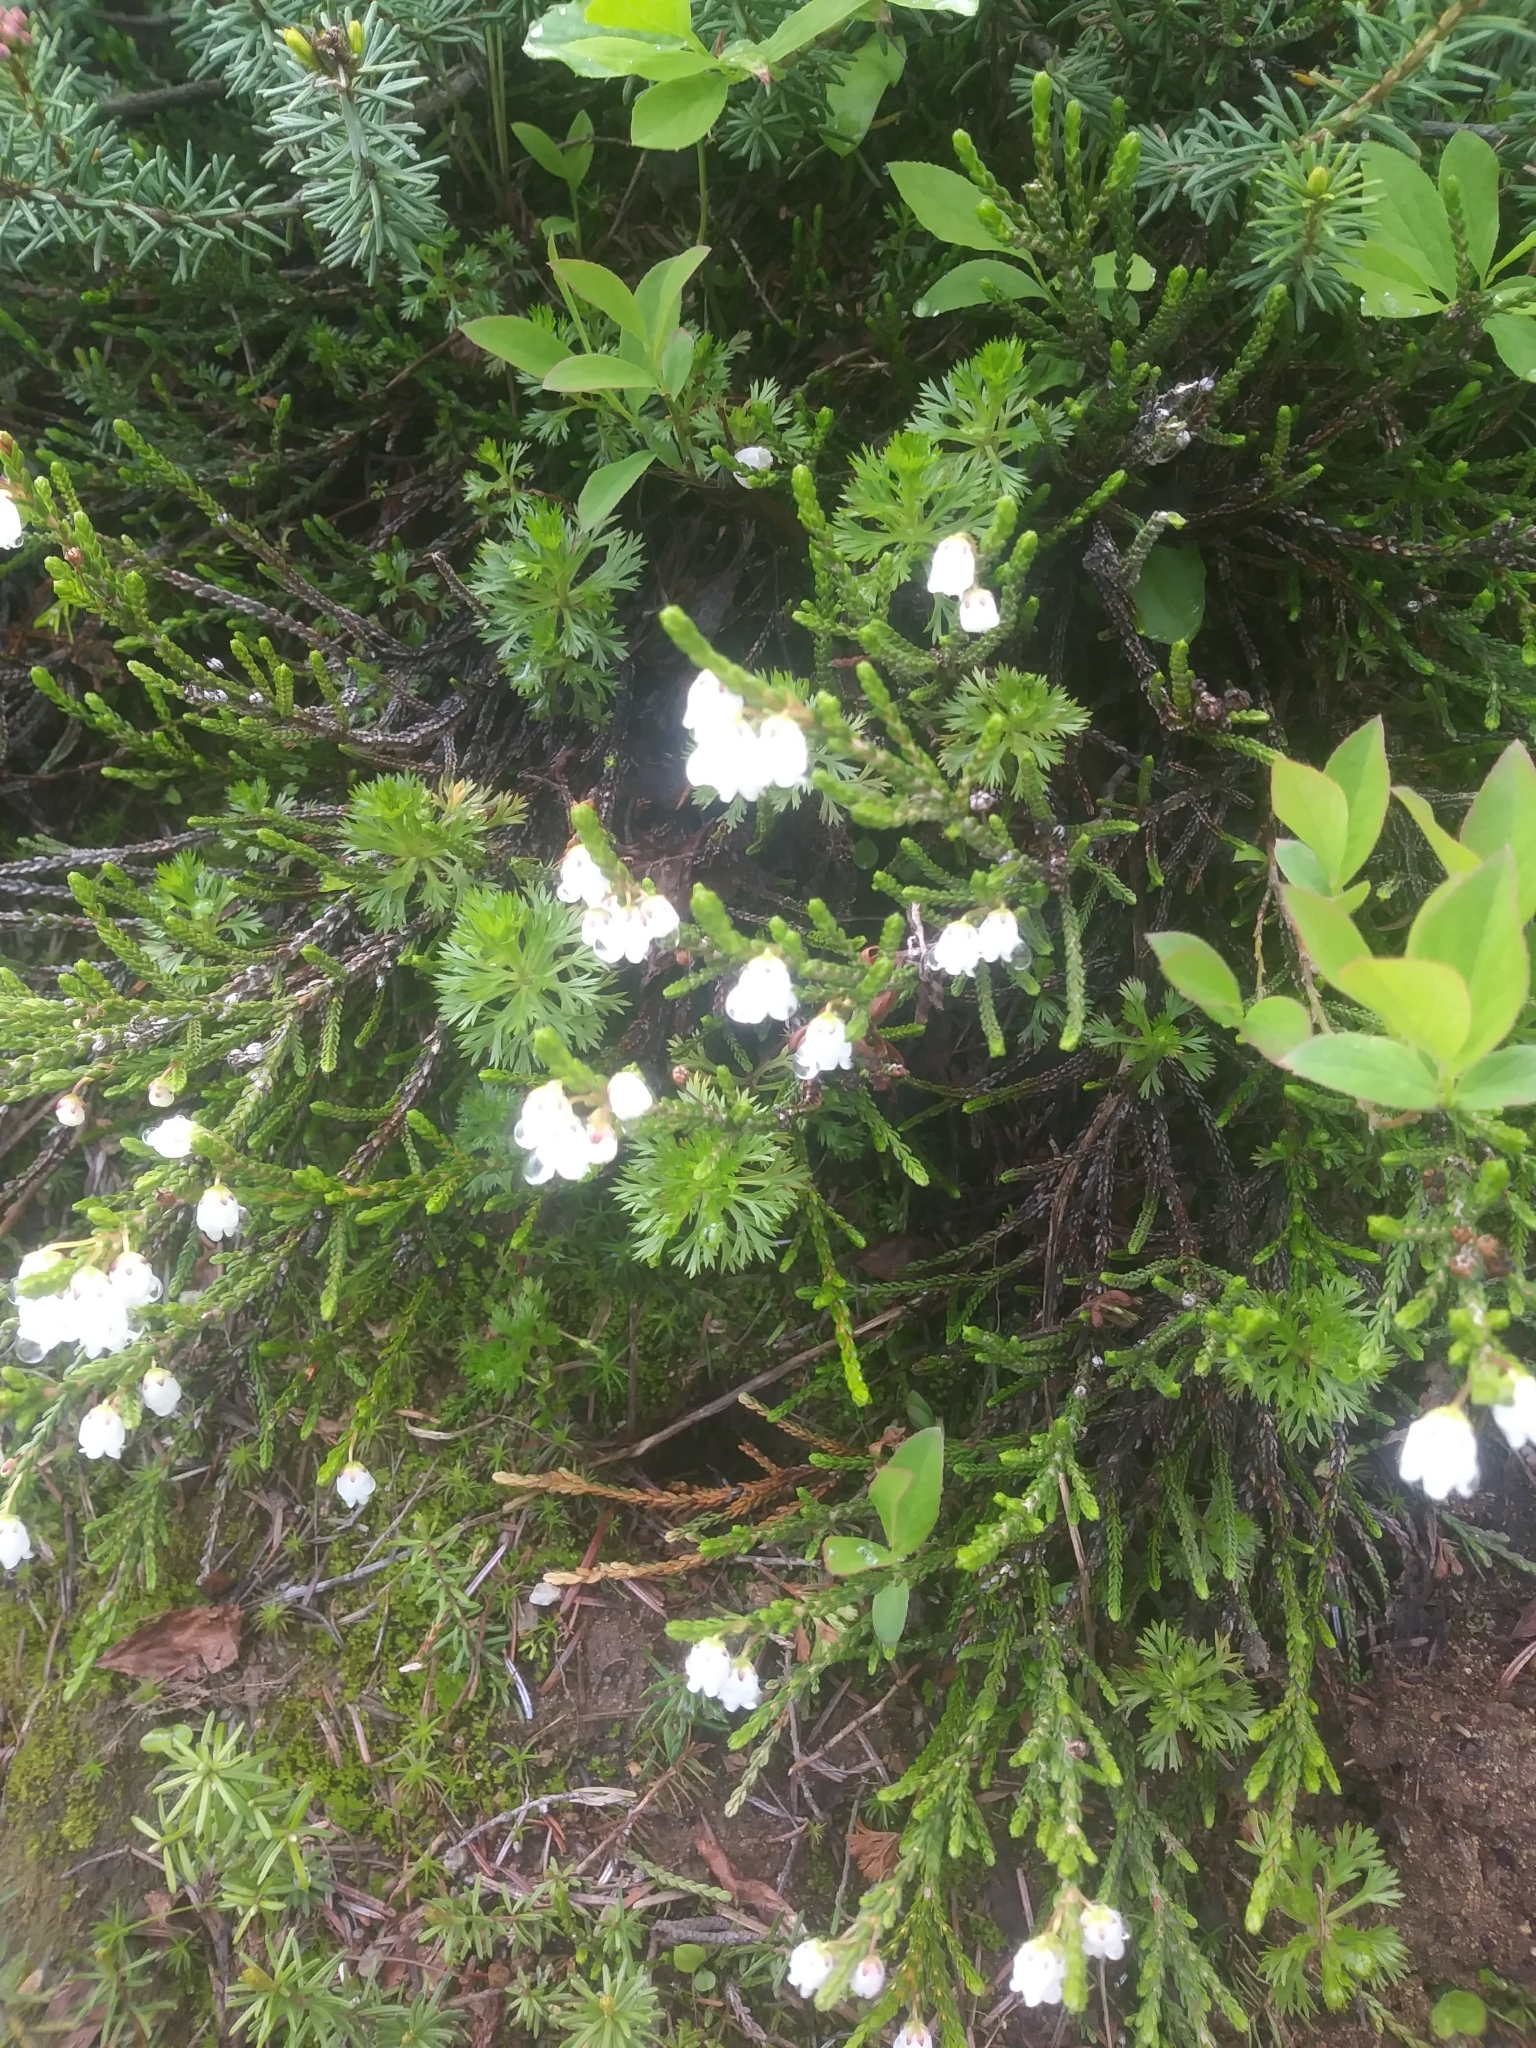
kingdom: Plantae
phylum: Tracheophyta
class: Magnoliopsida
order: Ericales
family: Ericaceae
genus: Cassiope
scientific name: Cassiope mertensiana
